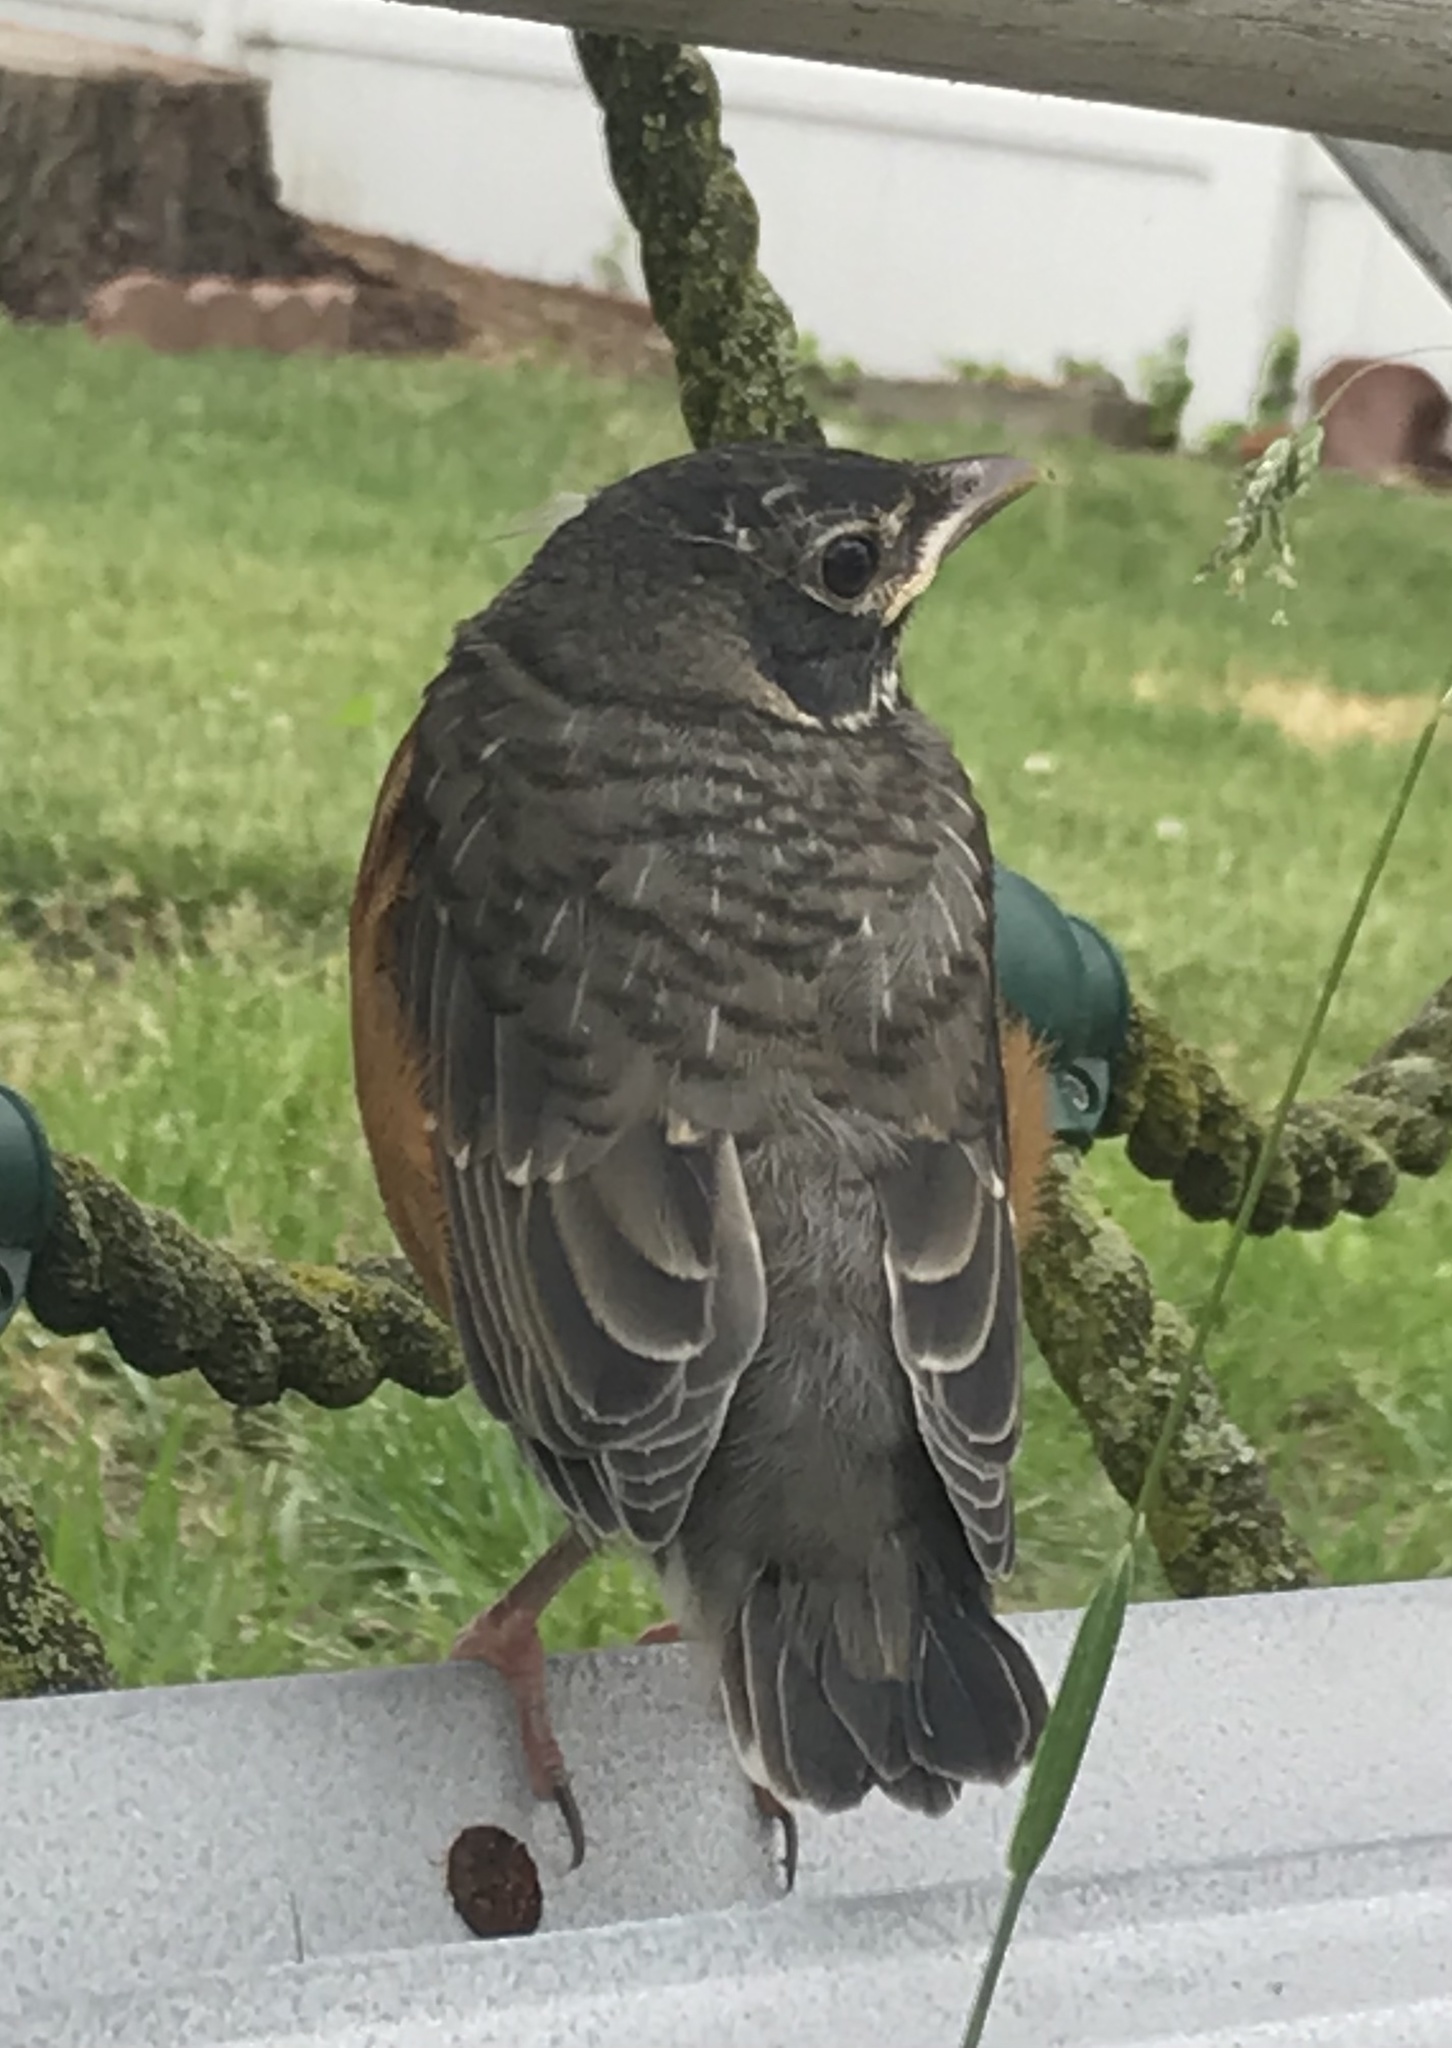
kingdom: Animalia
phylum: Chordata
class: Aves
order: Passeriformes
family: Turdidae
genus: Turdus
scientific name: Turdus migratorius
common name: American robin
